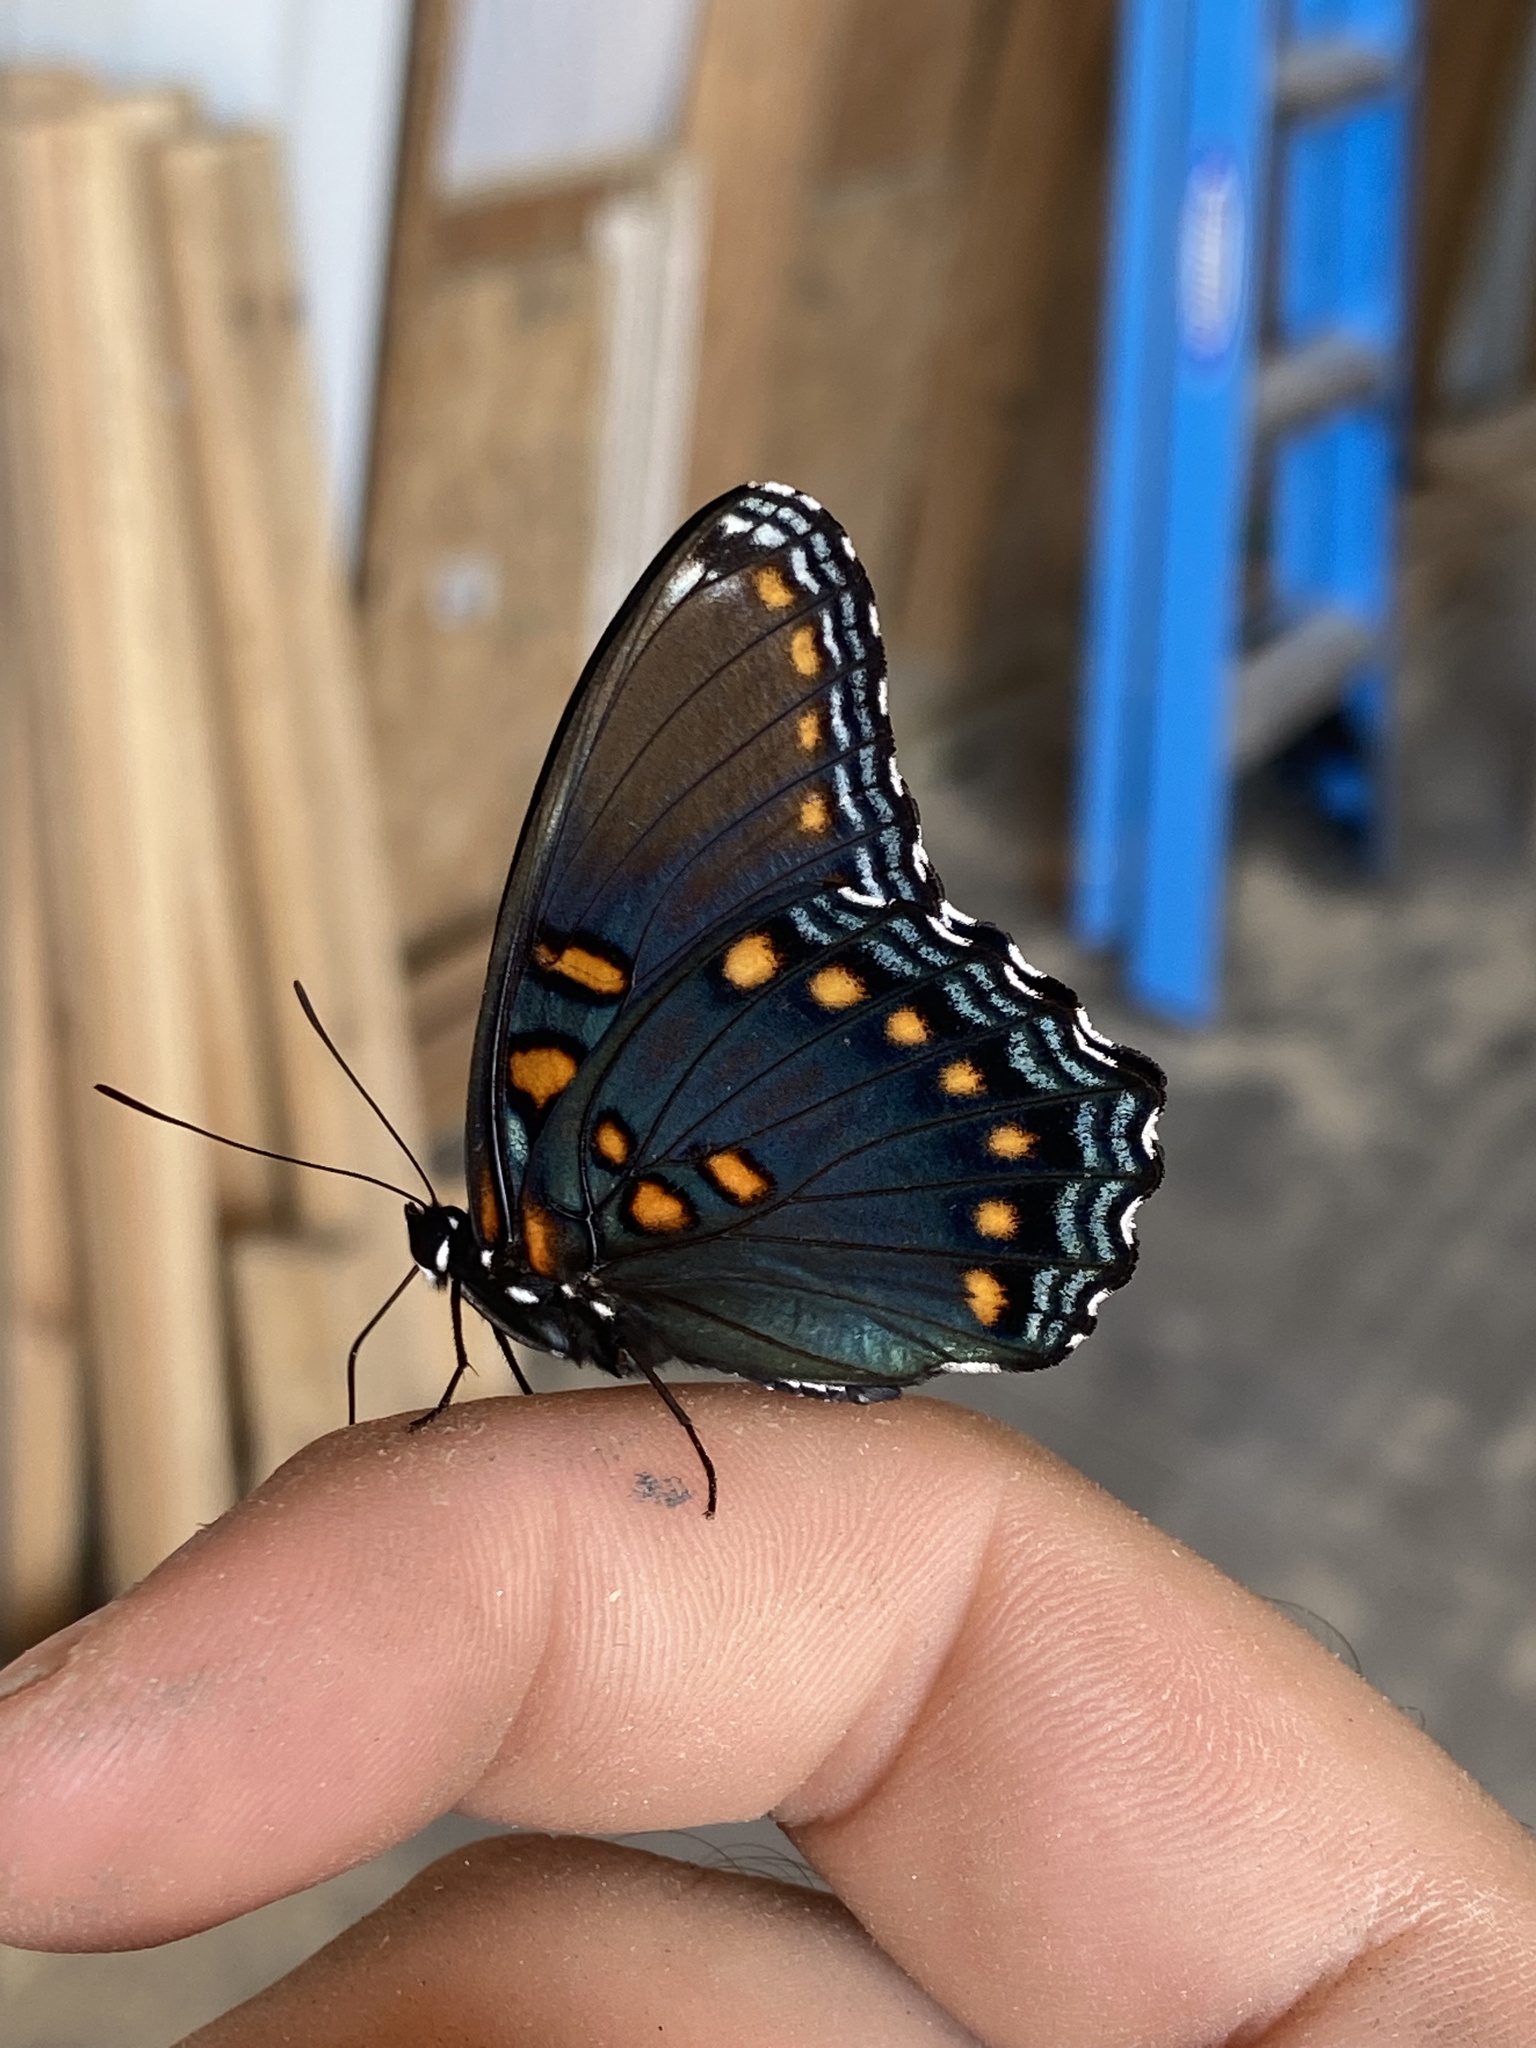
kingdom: Animalia
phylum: Arthropoda
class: Insecta
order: Lepidoptera
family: Nymphalidae
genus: Limenitis
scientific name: Limenitis astyanax
